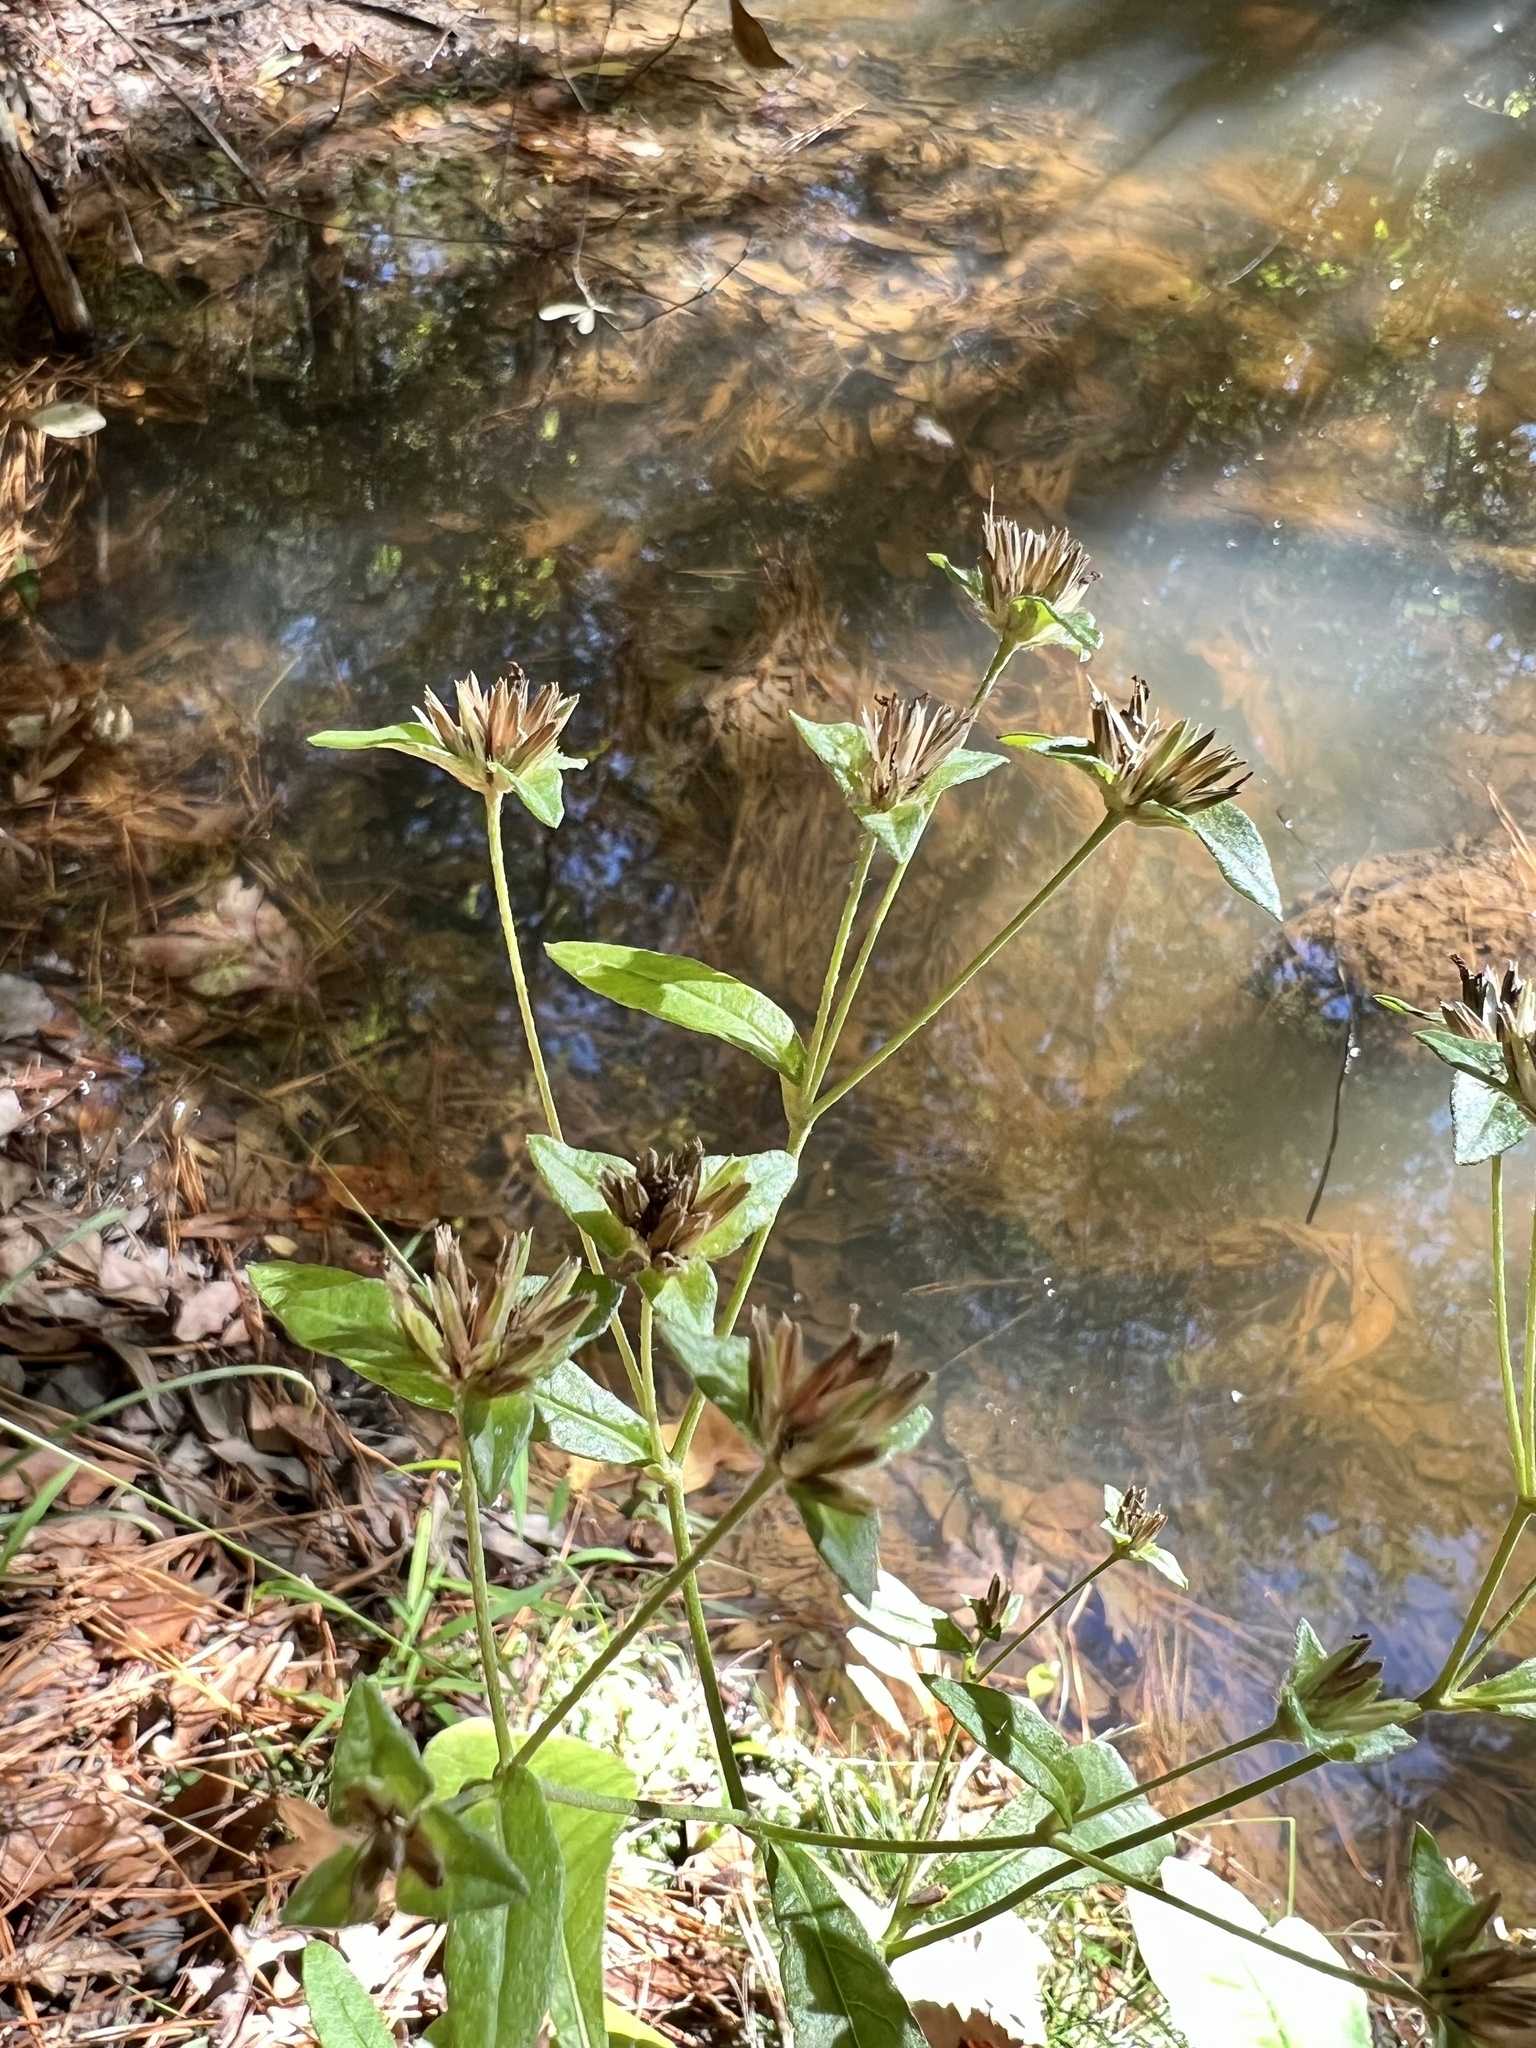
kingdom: Plantae
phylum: Tracheophyta
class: Magnoliopsida
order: Asterales
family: Asteraceae
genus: Elephantopus
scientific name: Elephantopus carolinianus
